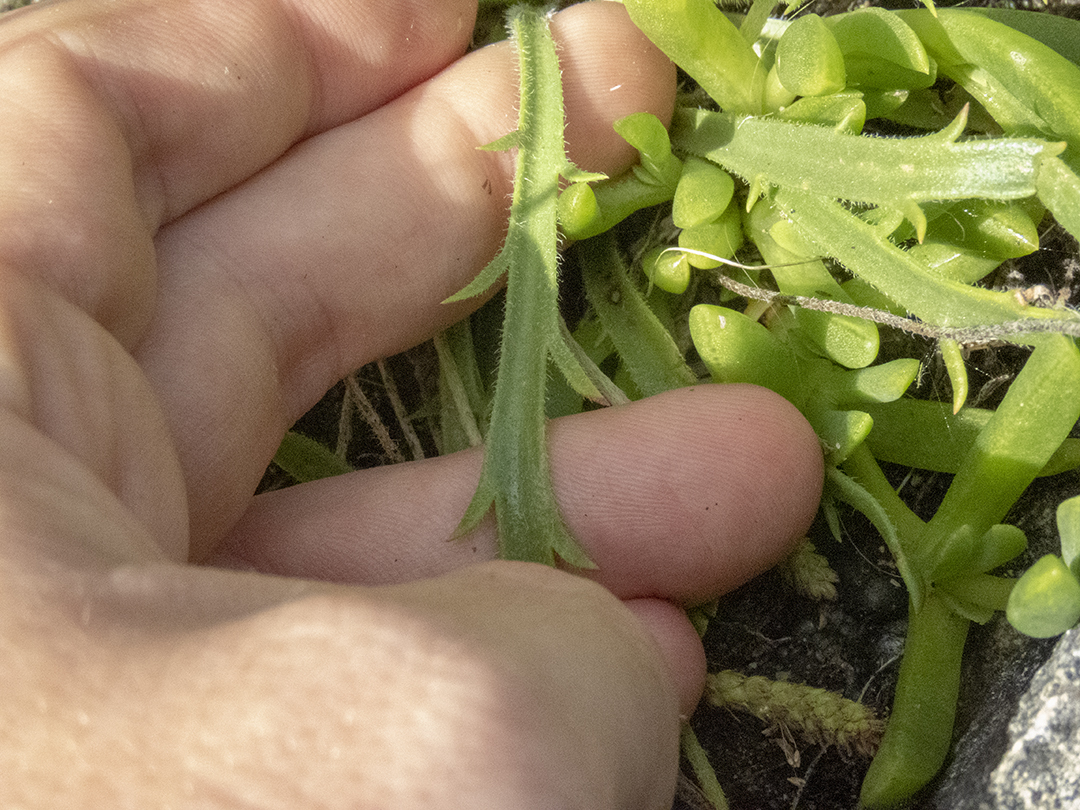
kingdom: Plantae
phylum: Tracheophyta
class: Magnoliopsida
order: Lamiales
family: Plantaginaceae
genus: Plantago
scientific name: Plantago coronopus
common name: Buck's-horn plantain
